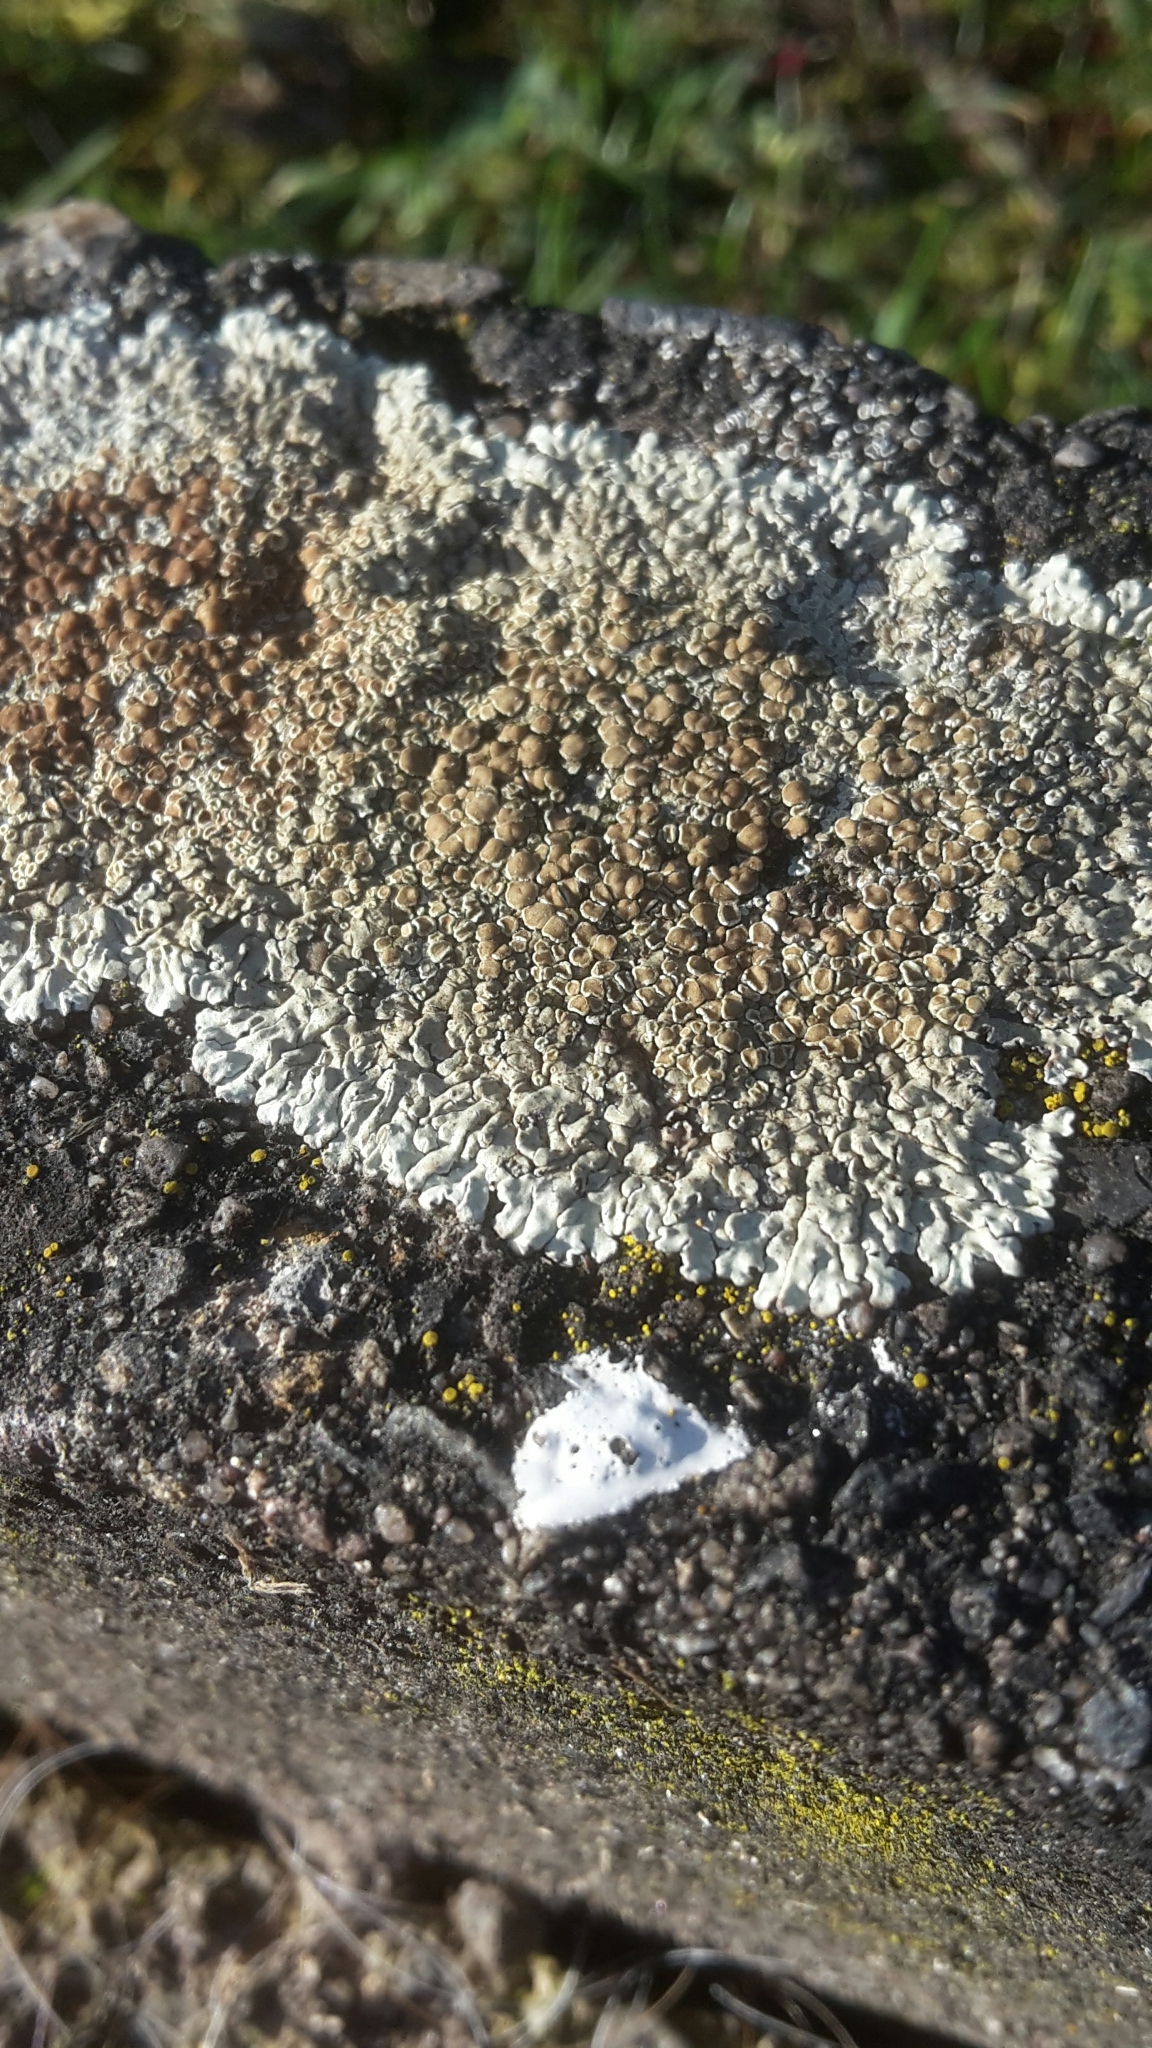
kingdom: Fungi
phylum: Ascomycota
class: Lecanoromycetes
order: Lecanorales
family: Lecanoraceae
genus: Protoparmeliopsis
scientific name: Protoparmeliopsis muralis
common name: Stonewall rim lichen
